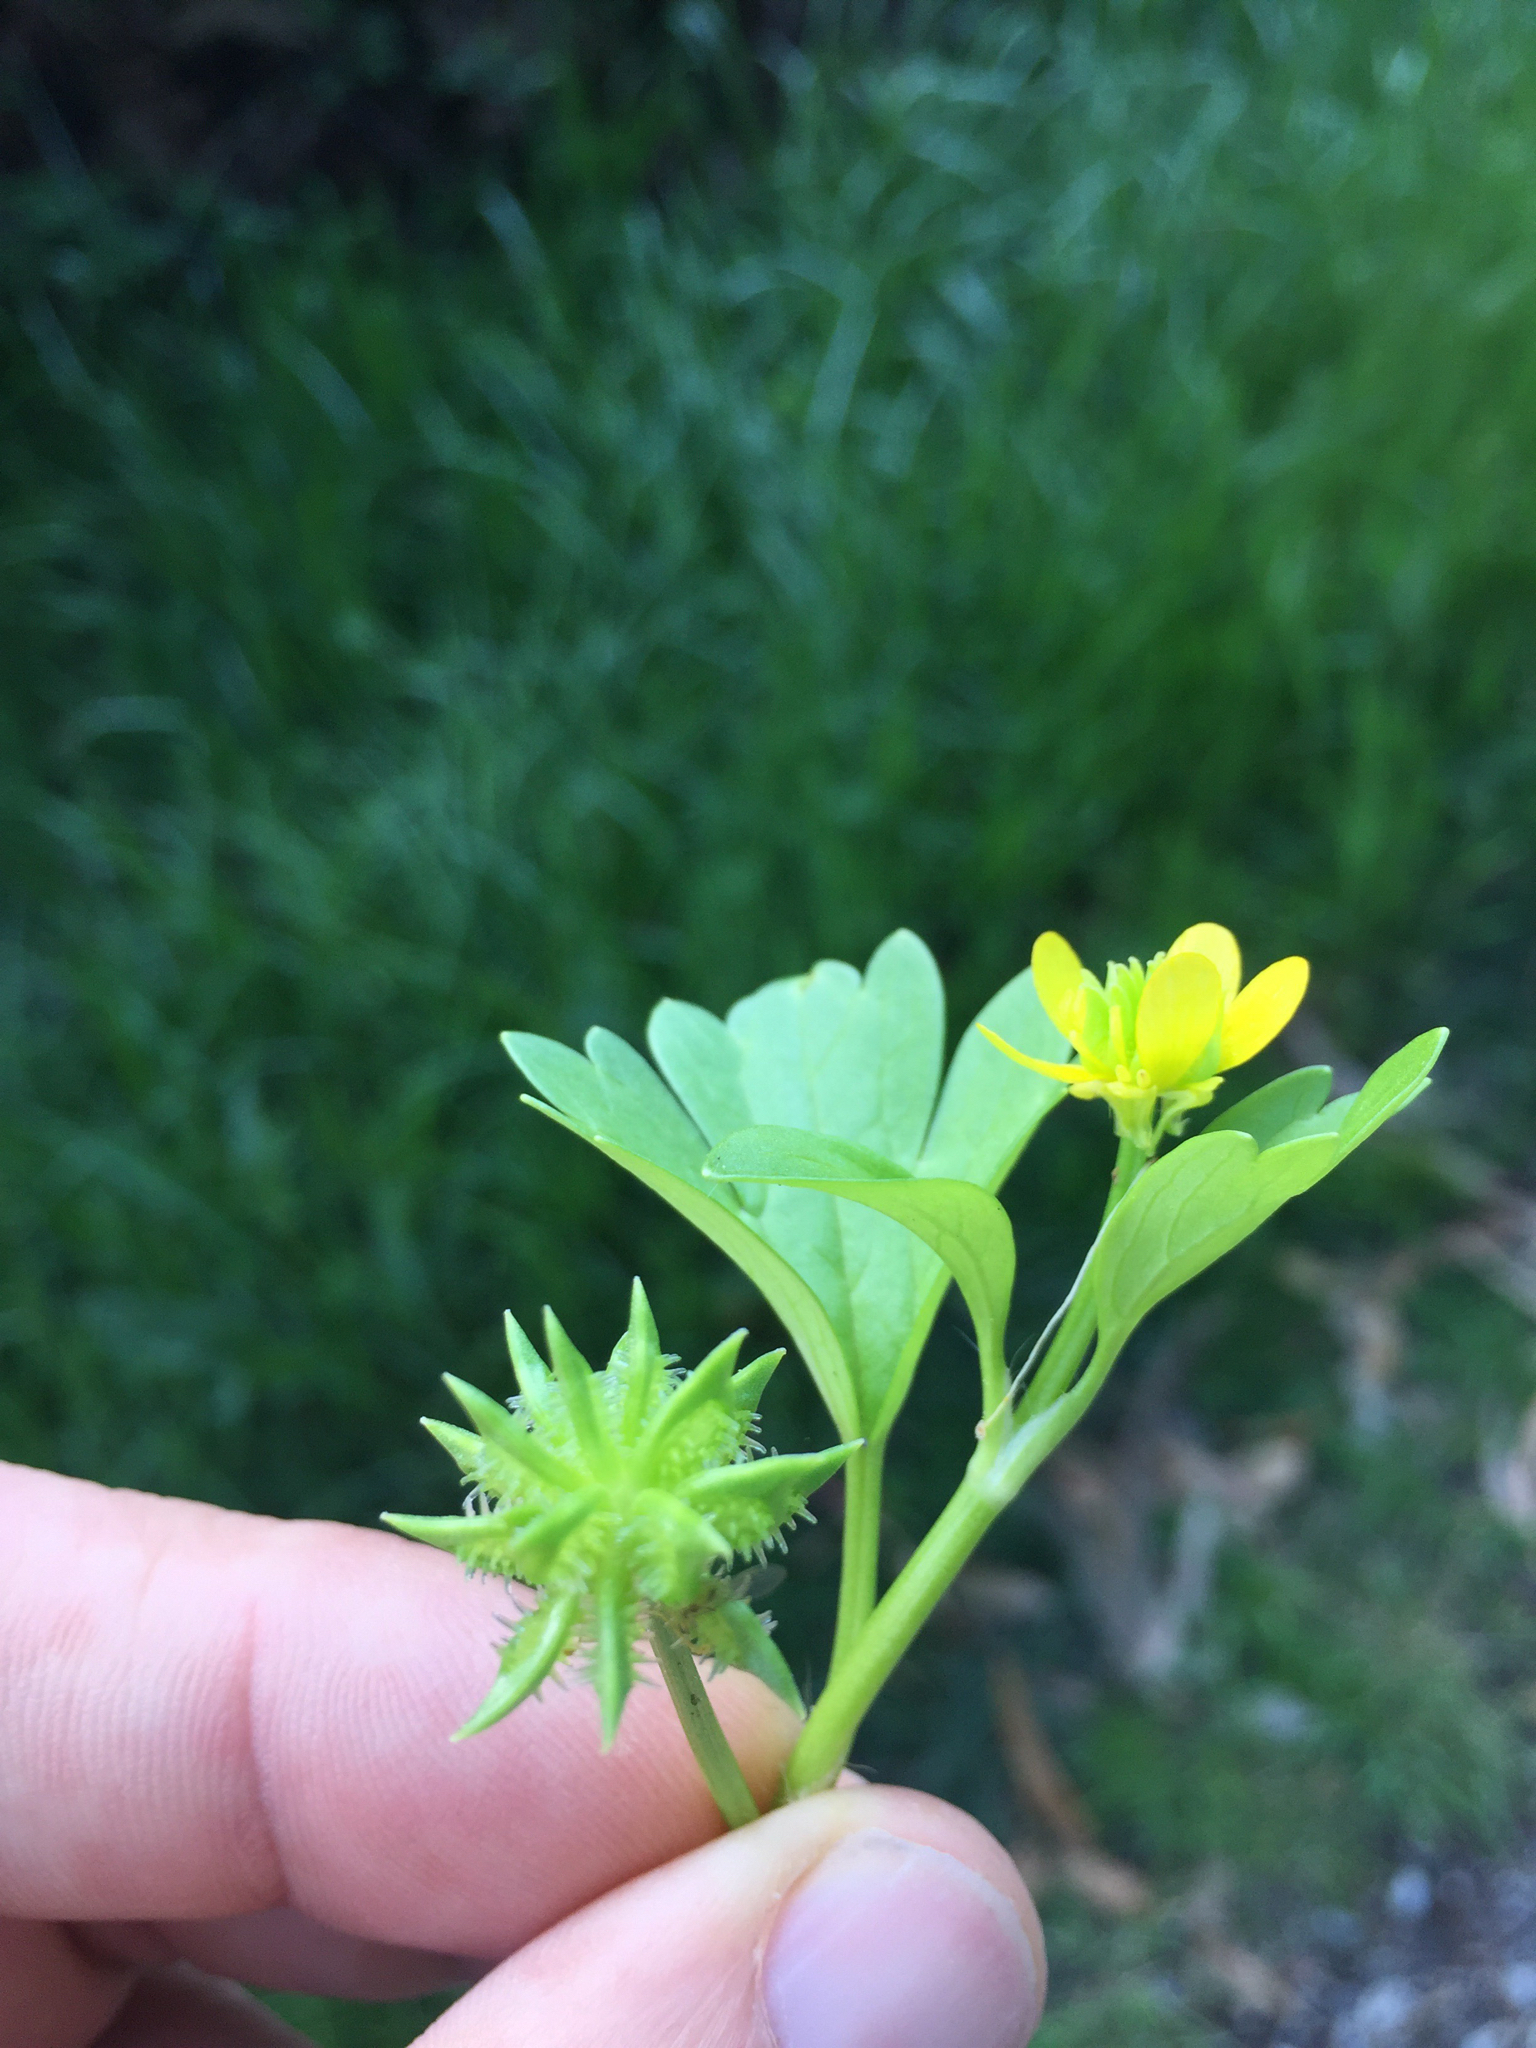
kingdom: Plantae
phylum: Tracheophyta
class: Magnoliopsida
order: Ranunculales
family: Ranunculaceae
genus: Ranunculus
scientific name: Ranunculus muricatus
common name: Rough-fruited buttercup
